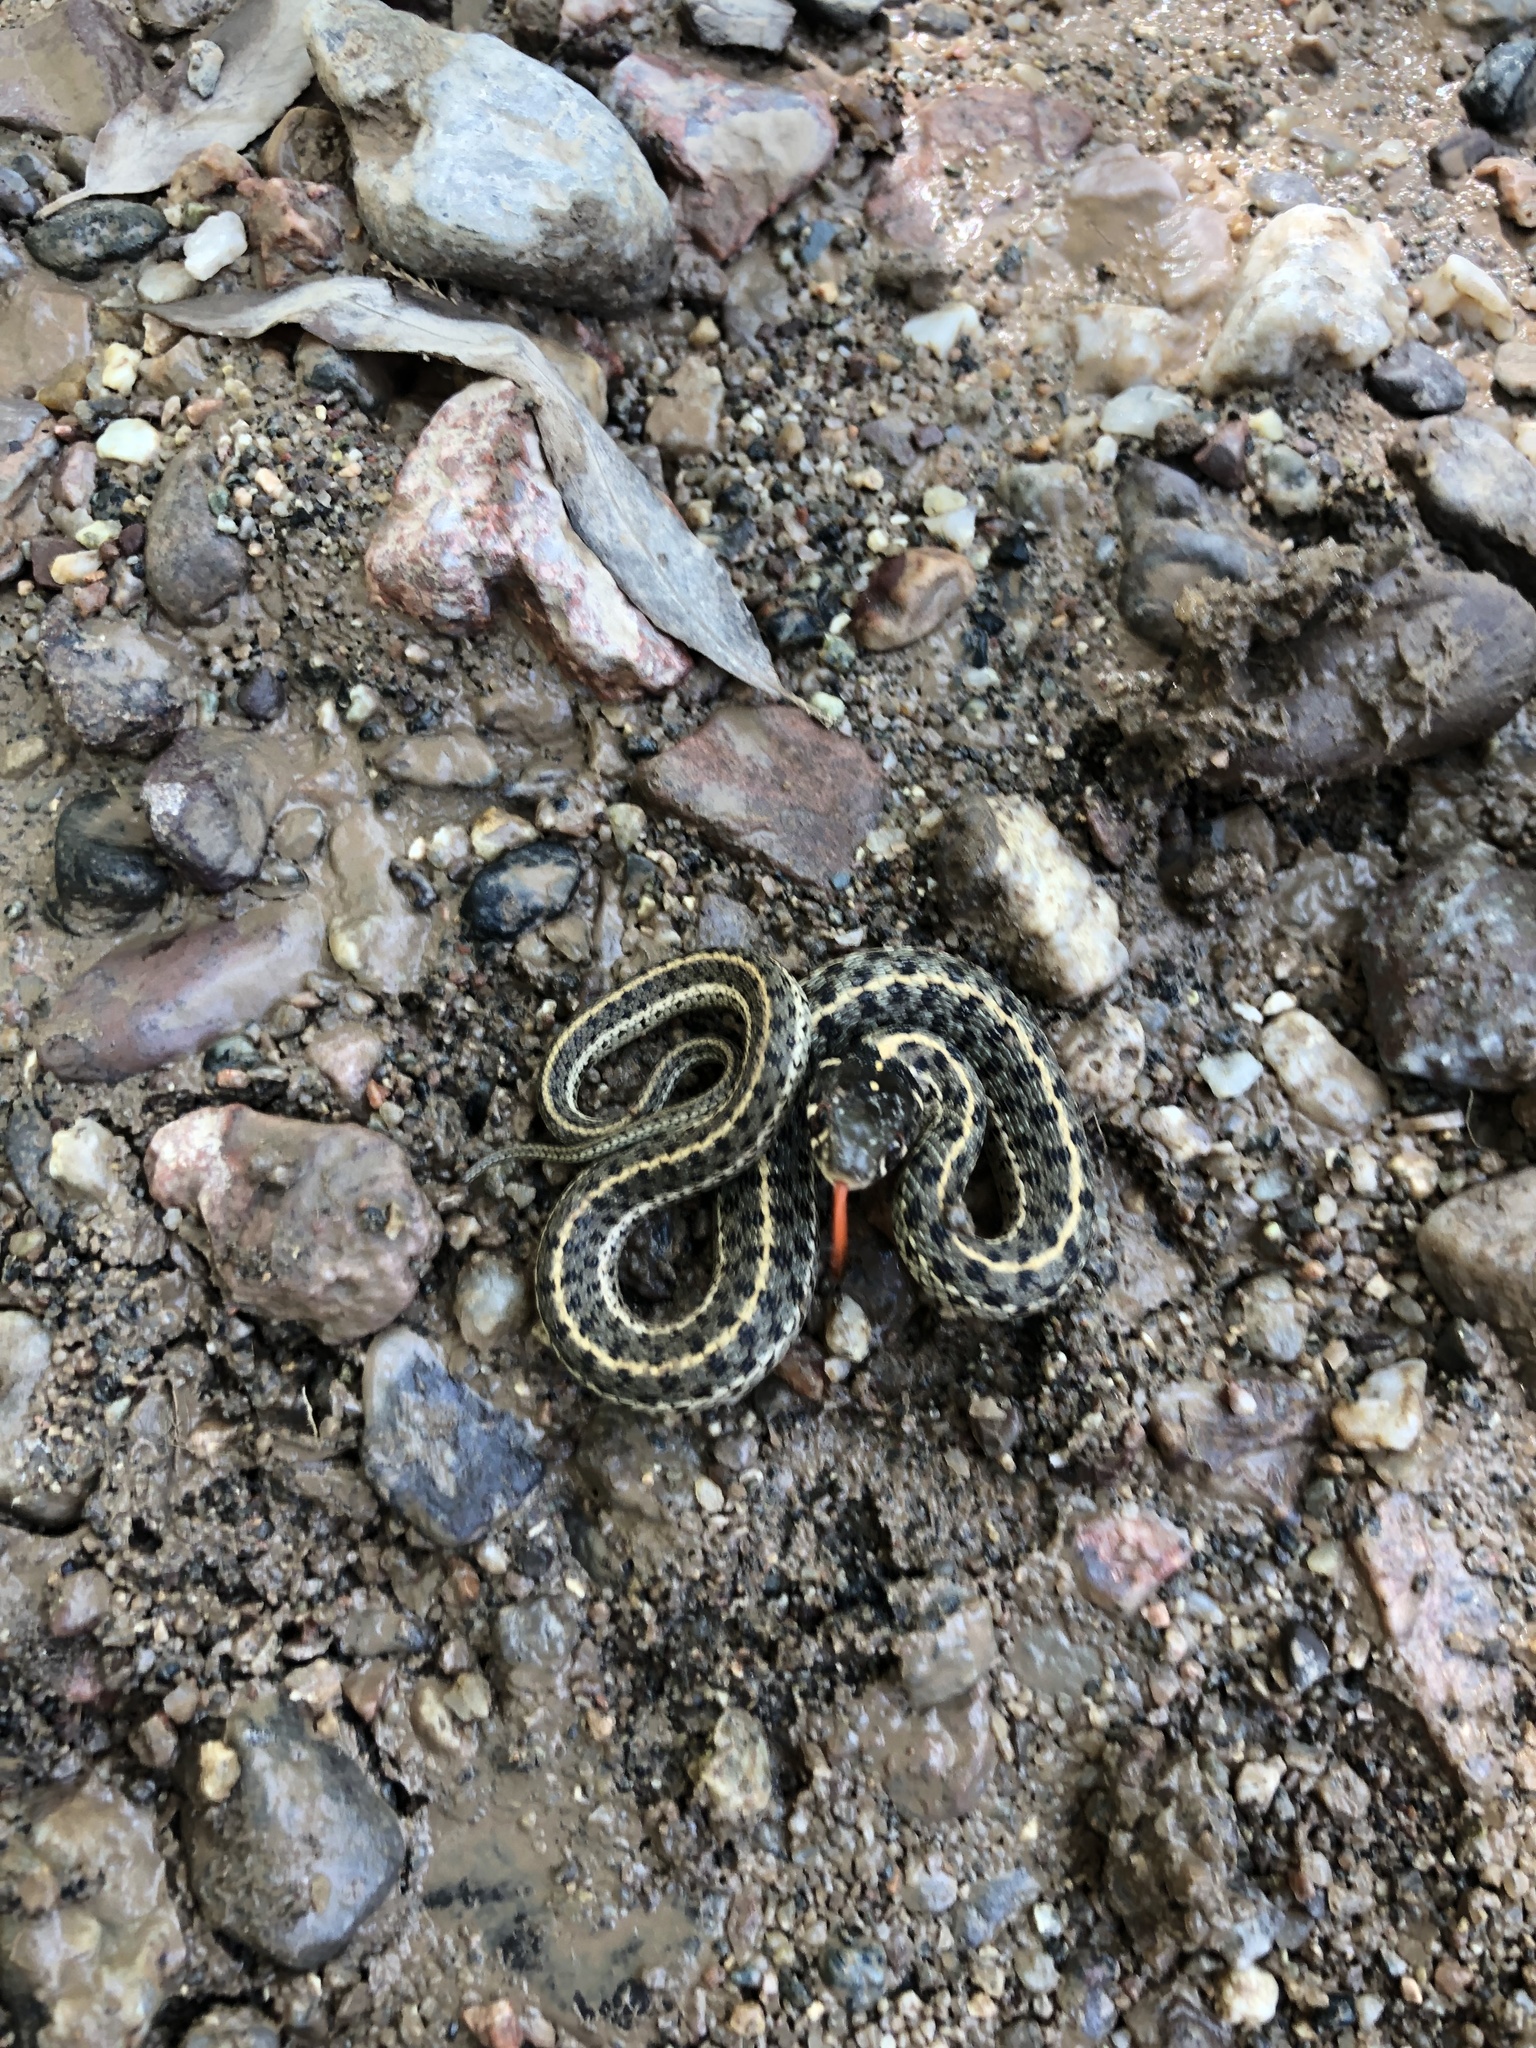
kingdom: Animalia
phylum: Chordata
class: Squamata
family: Colubridae
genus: Thamnophis
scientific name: Thamnophis cyrtopsis
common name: Black-necked gartersnake
